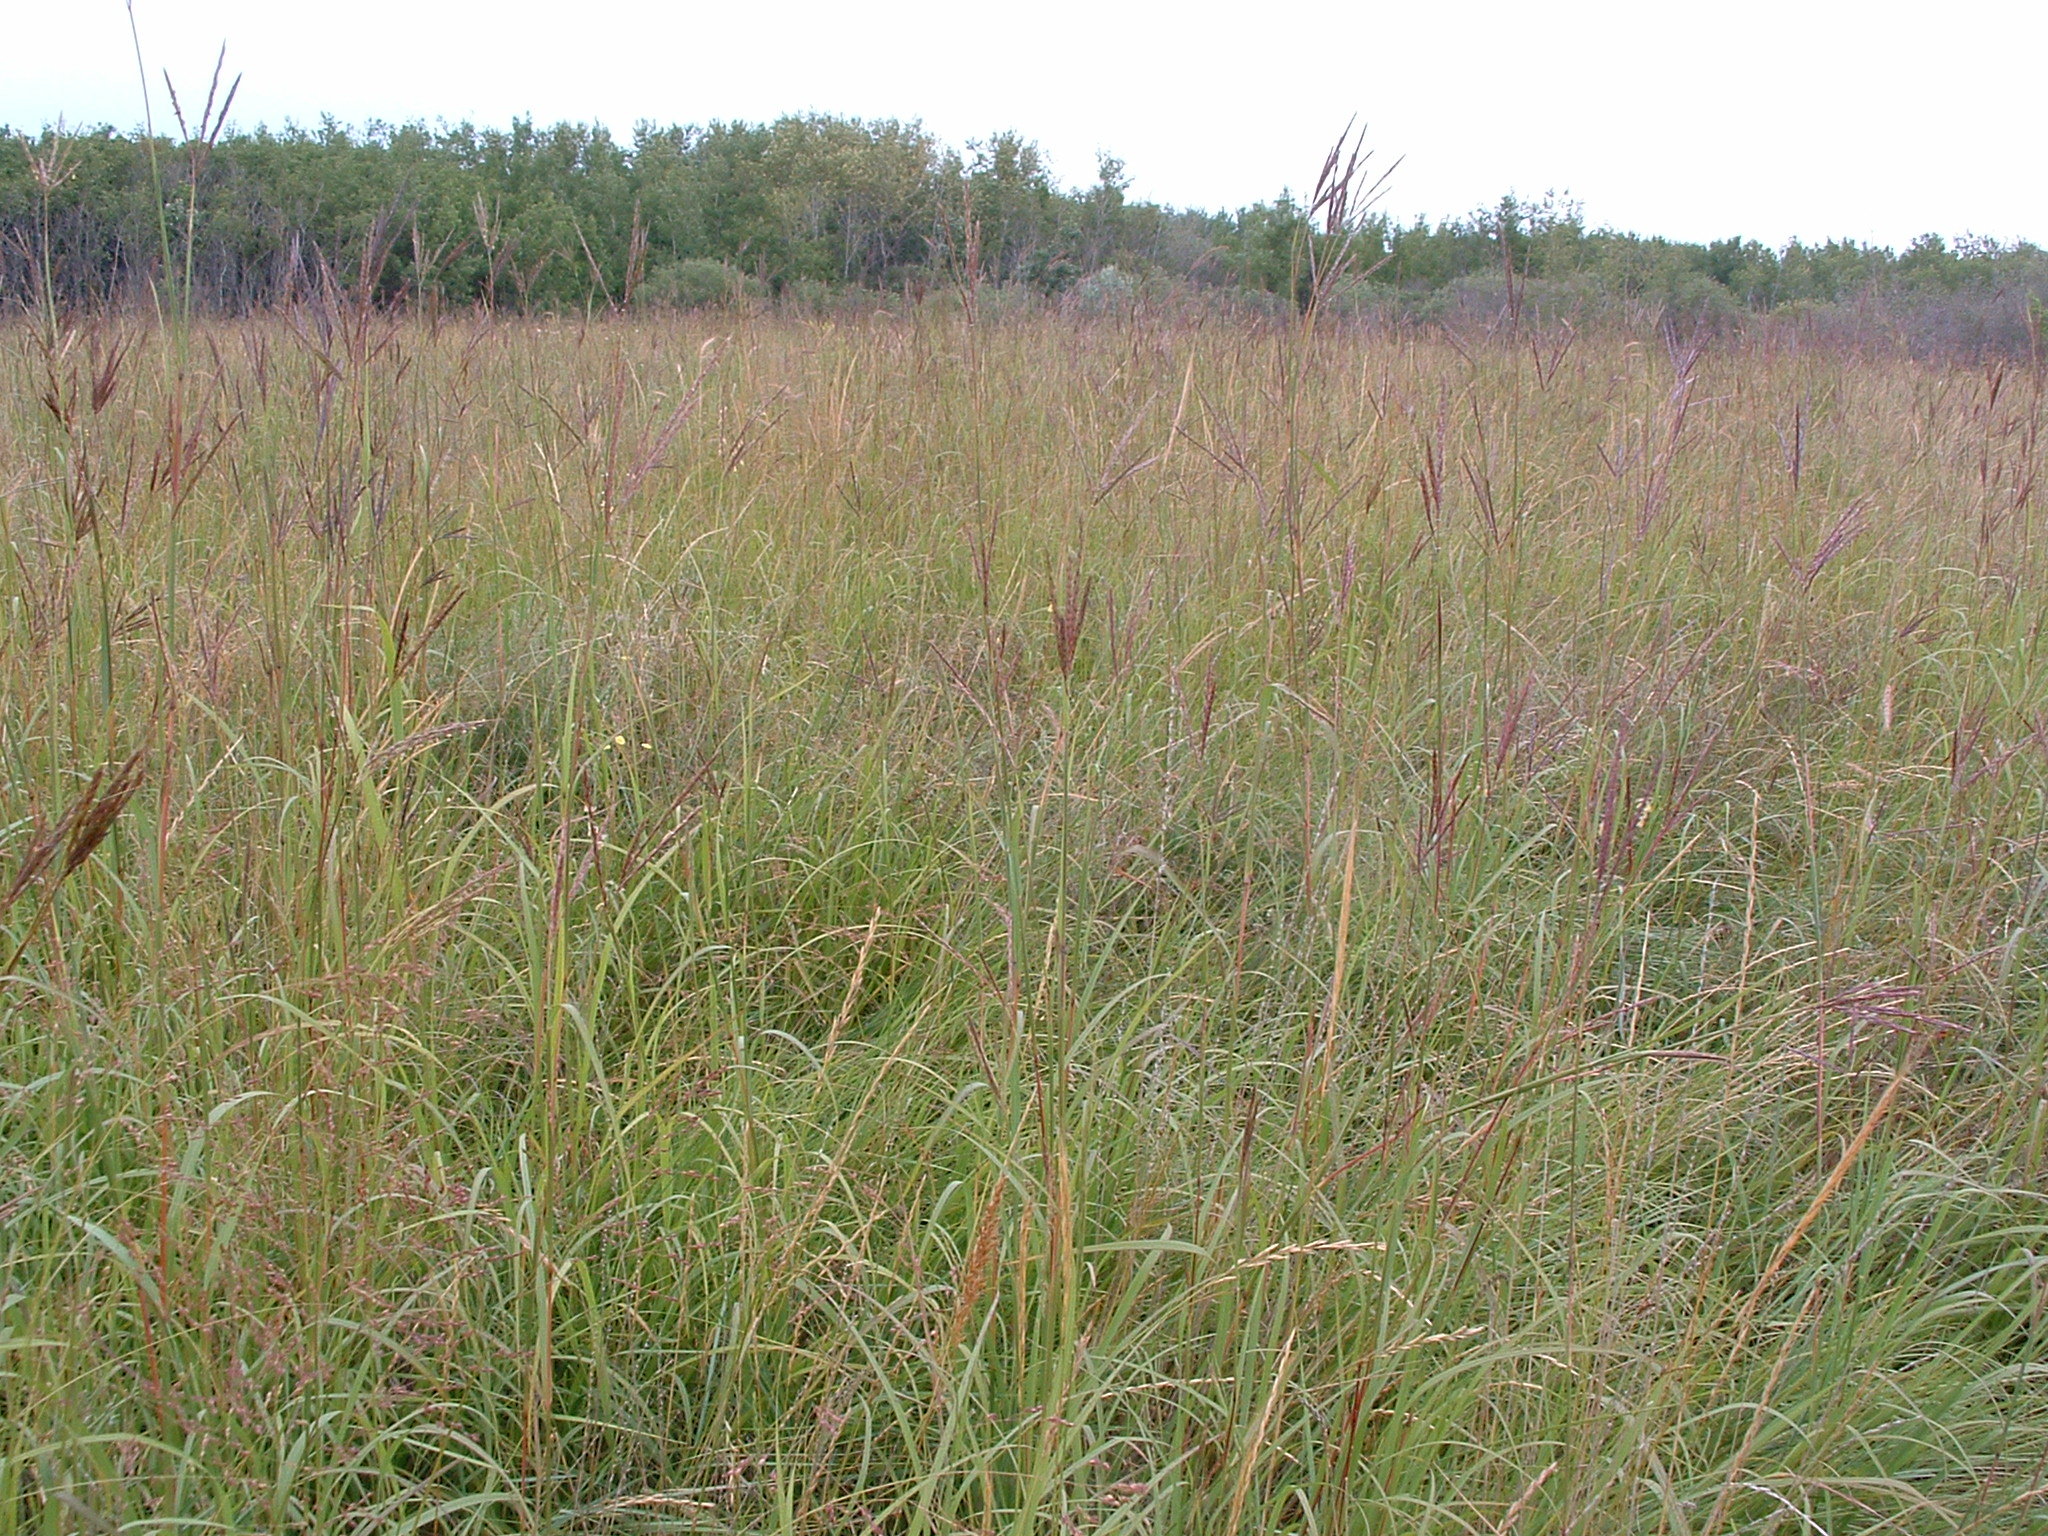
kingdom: Plantae
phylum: Tracheophyta
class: Liliopsida
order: Poales
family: Poaceae
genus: Andropogon
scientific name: Andropogon gerardi
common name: Big bluestem
